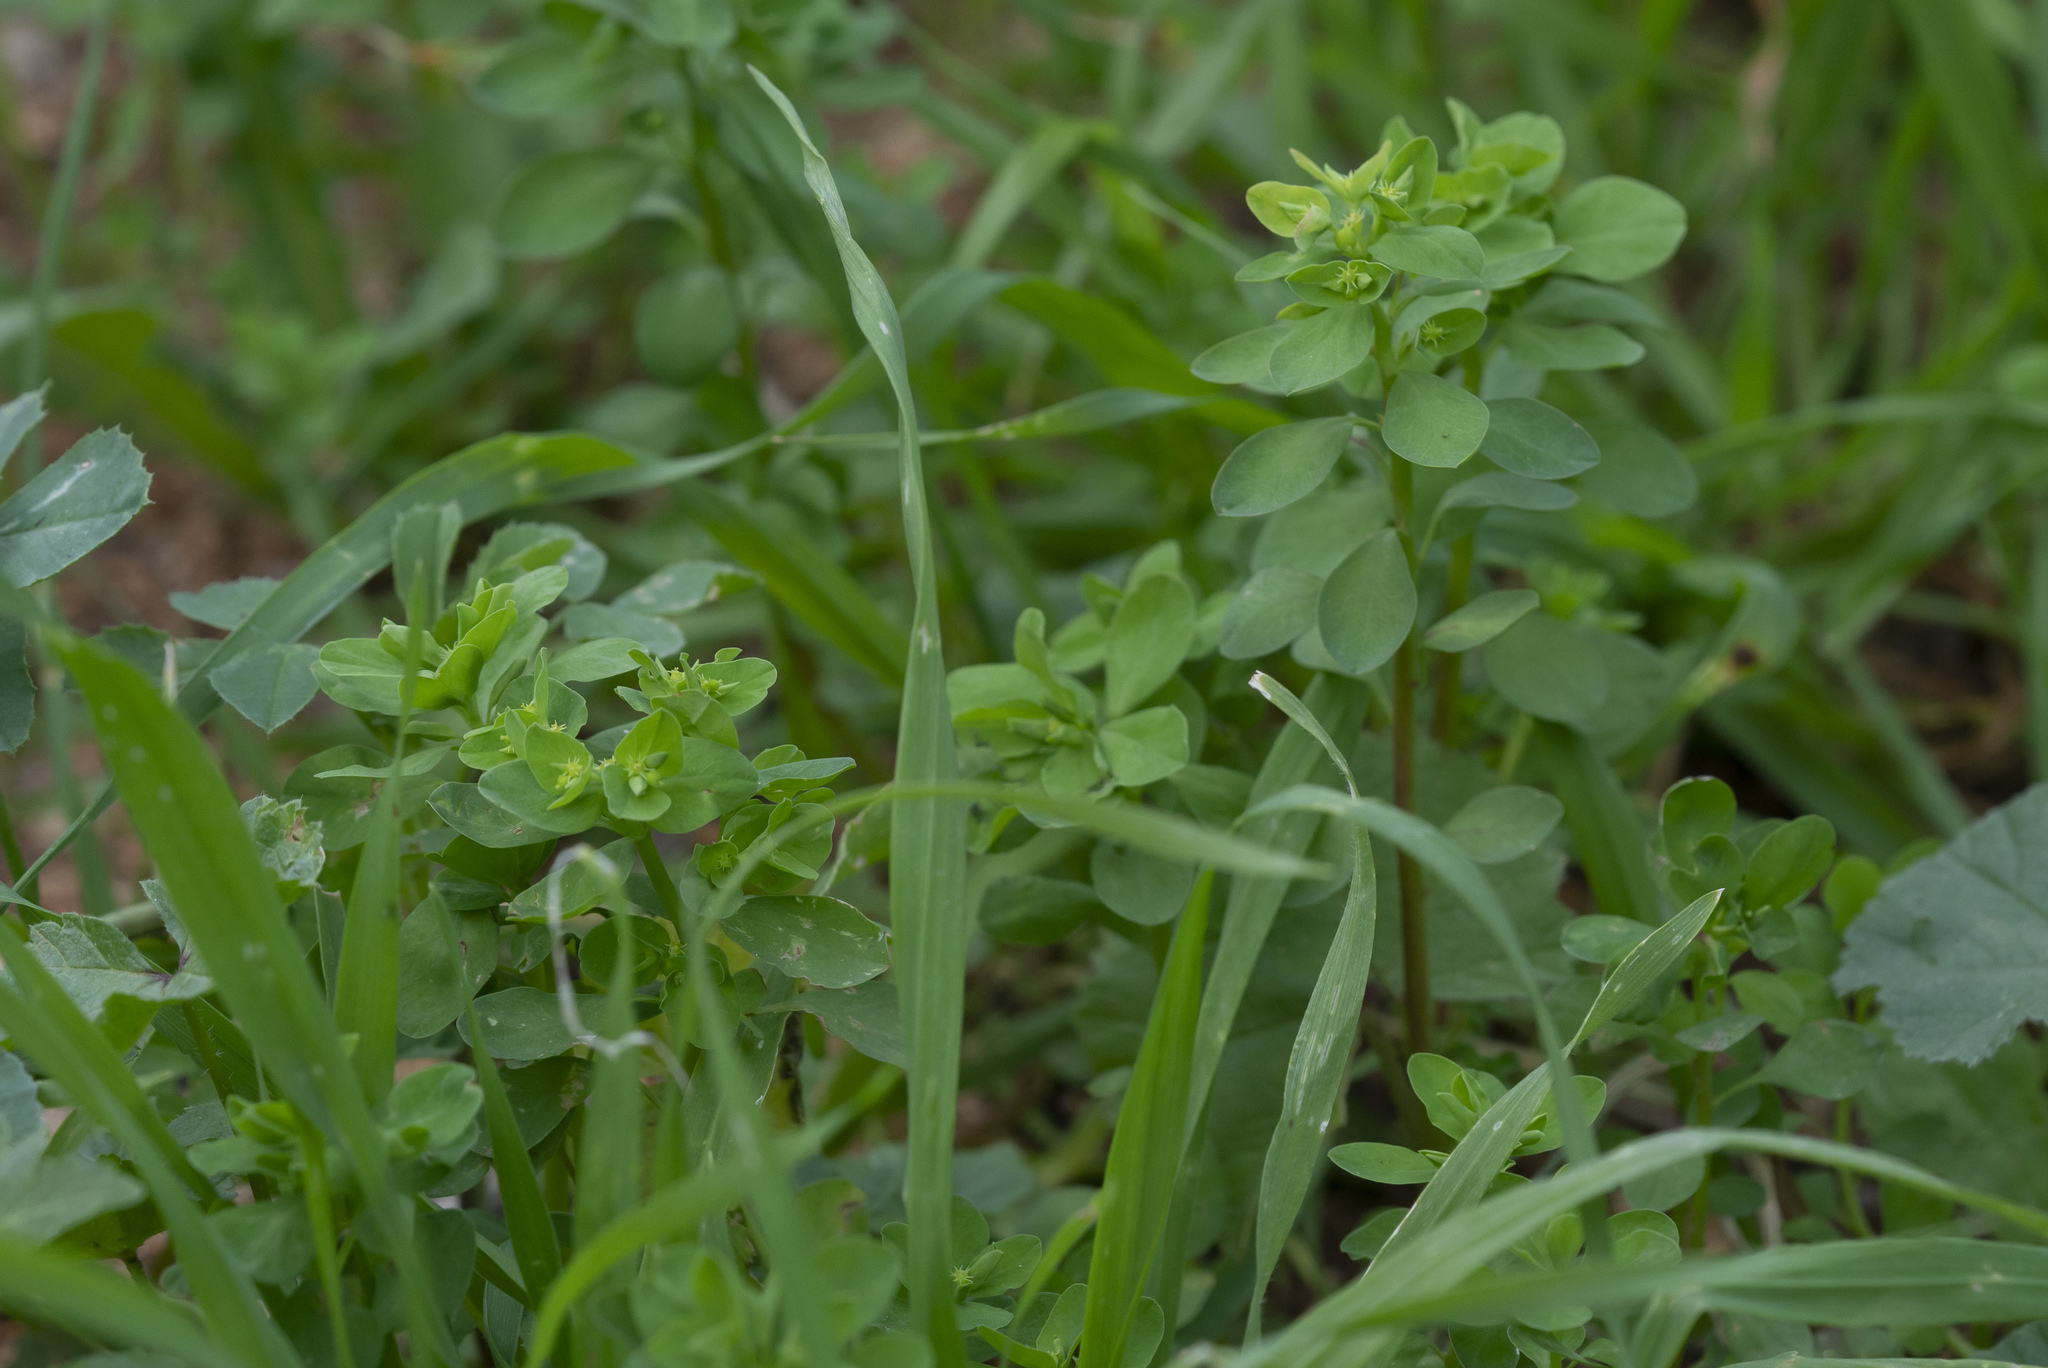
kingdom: Plantae
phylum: Tracheophyta
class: Magnoliopsida
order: Malpighiales
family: Euphorbiaceae
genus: Euphorbia
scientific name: Euphorbia helioscopia
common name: Sun spurge
